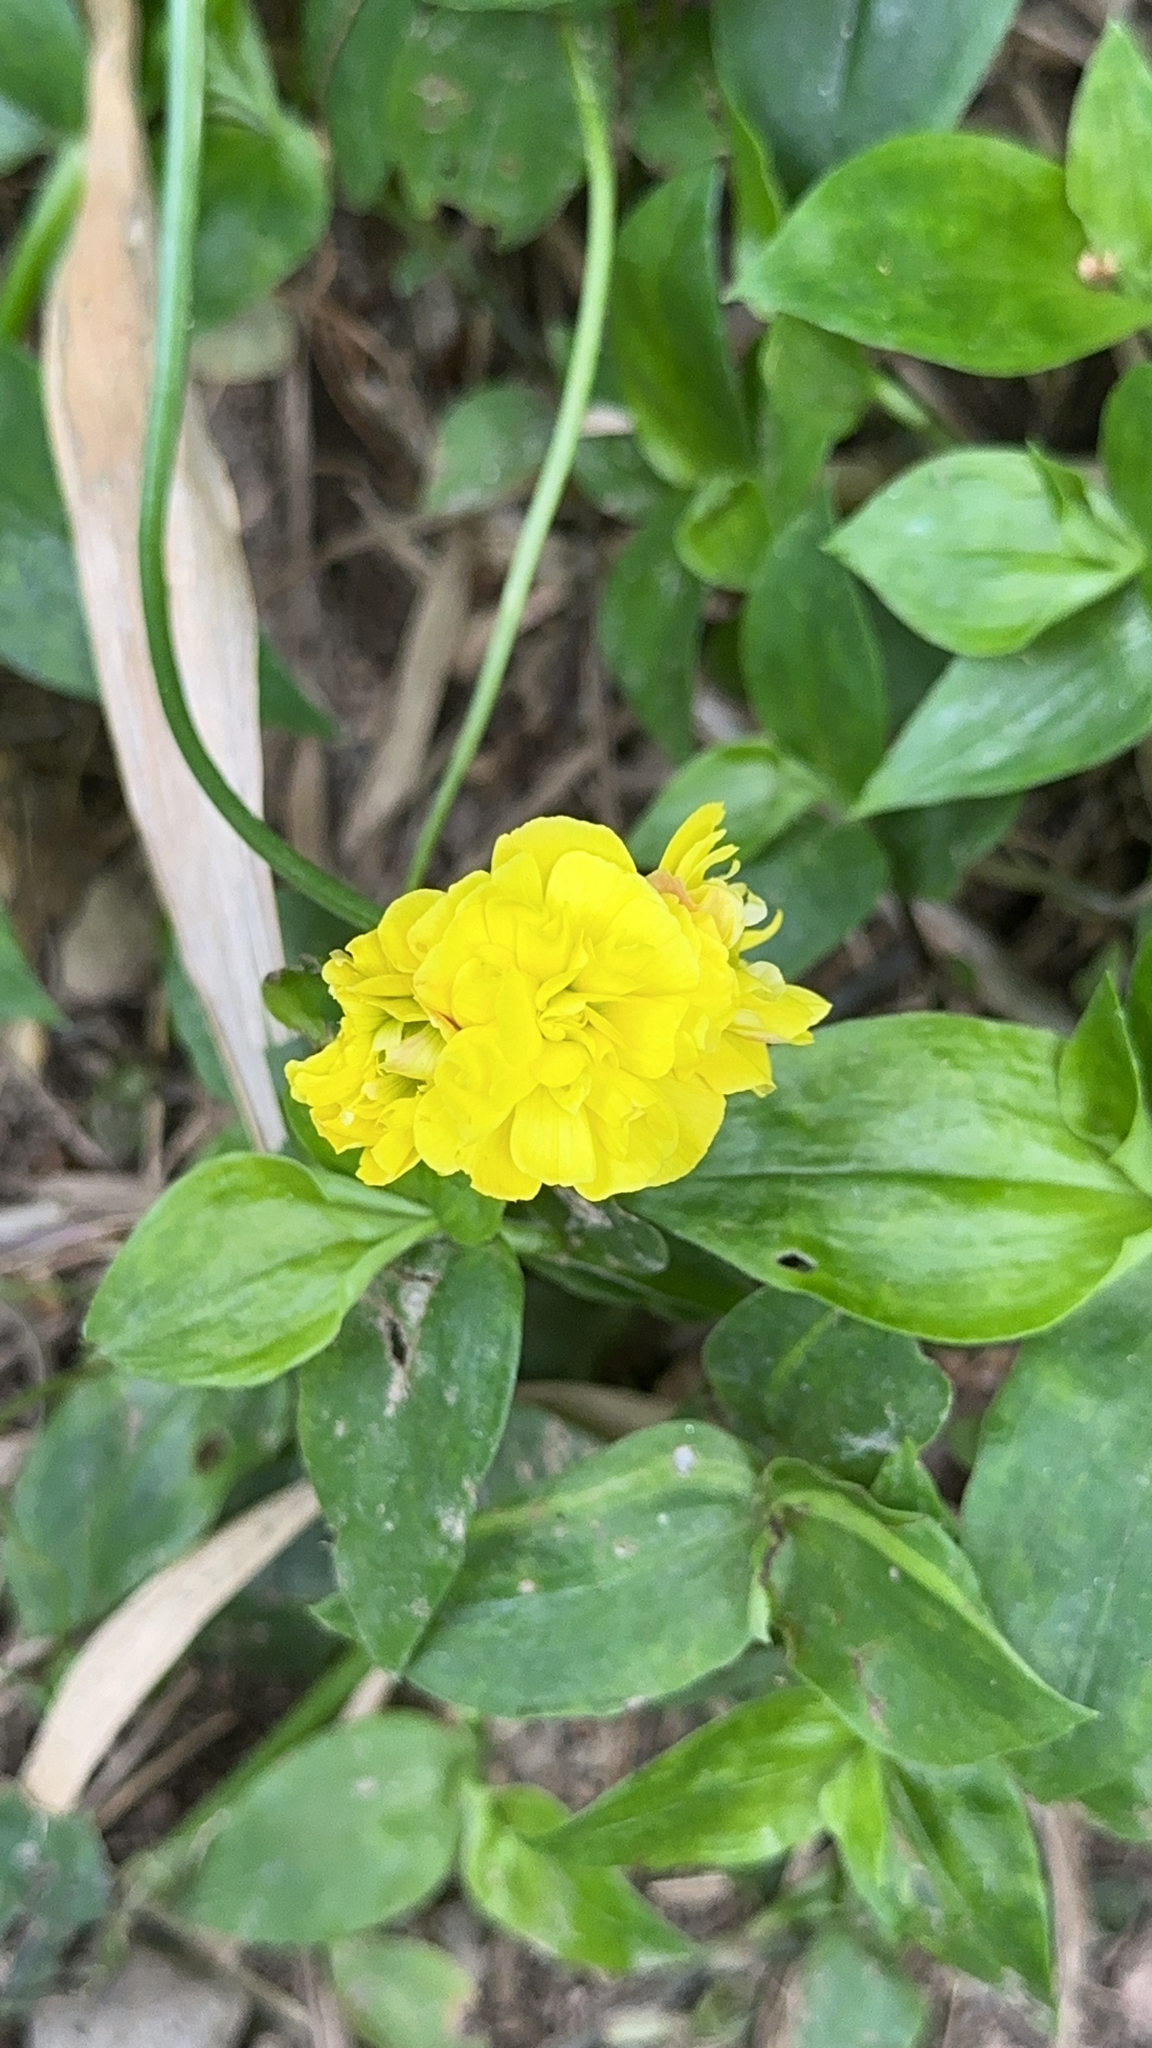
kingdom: Plantae
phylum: Tracheophyta
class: Magnoliopsida
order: Oxalidales
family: Oxalidaceae
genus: Oxalis
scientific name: Oxalis pes-caprae
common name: Bermuda-buttercup
